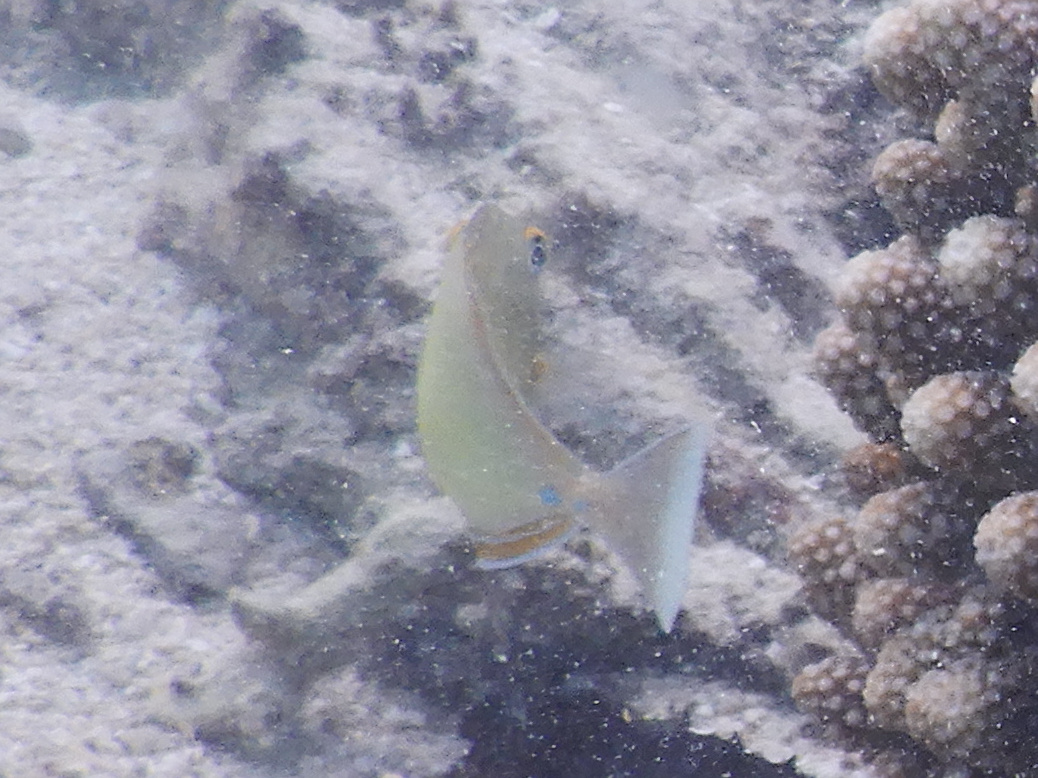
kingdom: Animalia
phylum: Chordata
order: Perciformes
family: Acanthuridae
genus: Naso
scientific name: Naso unicornis
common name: Bluespine unicornfish
